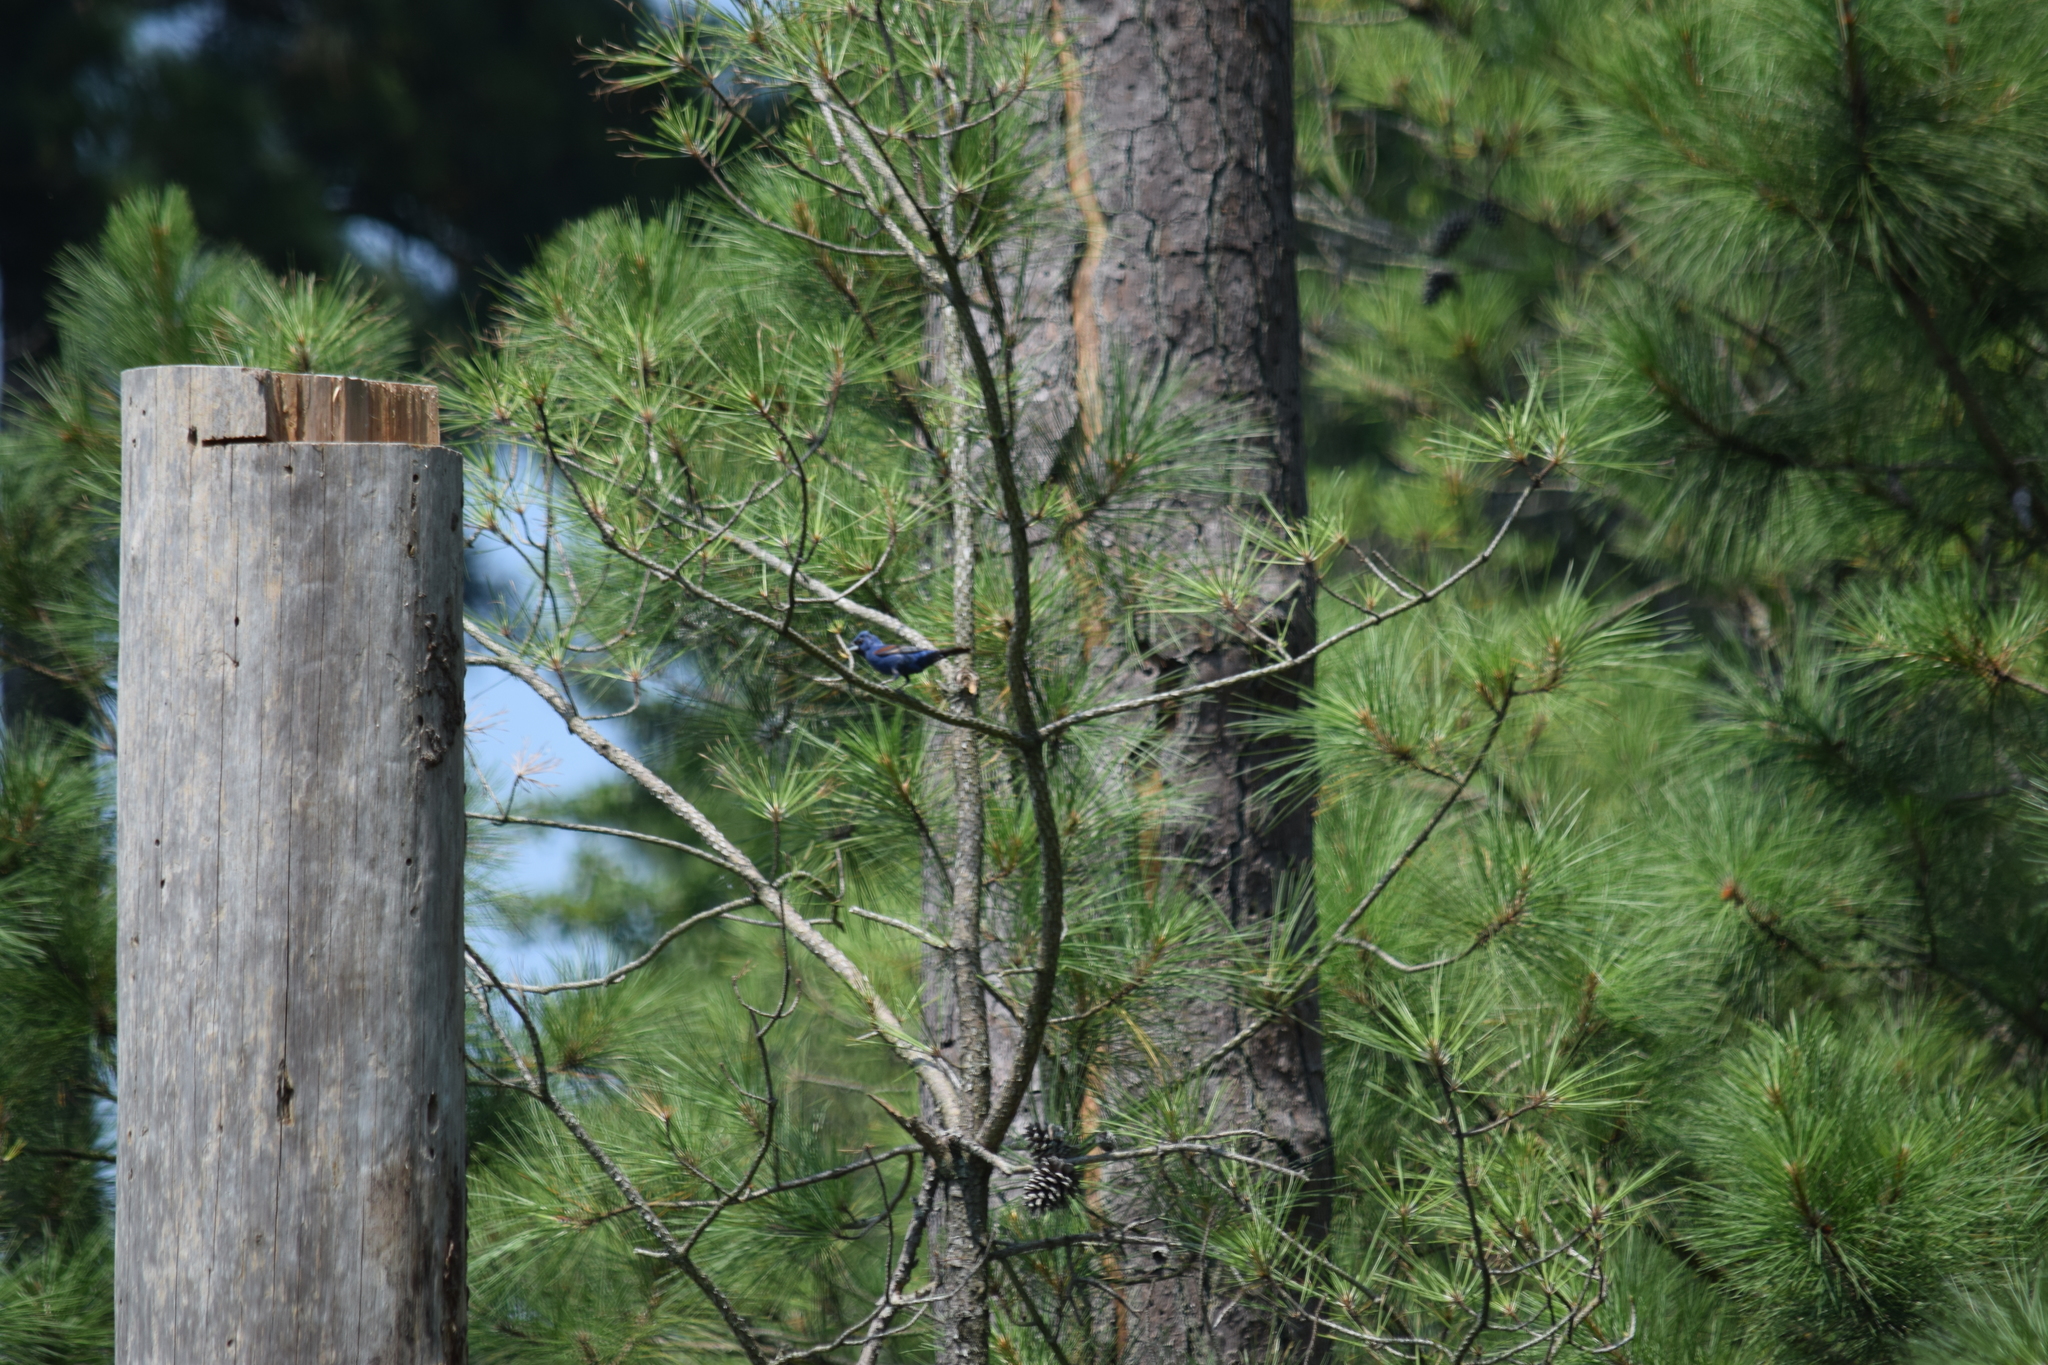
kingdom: Animalia
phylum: Chordata
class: Aves
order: Passeriformes
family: Cardinalidae
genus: Passerina
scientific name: Passerina caerulea
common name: Blue grosbeak
